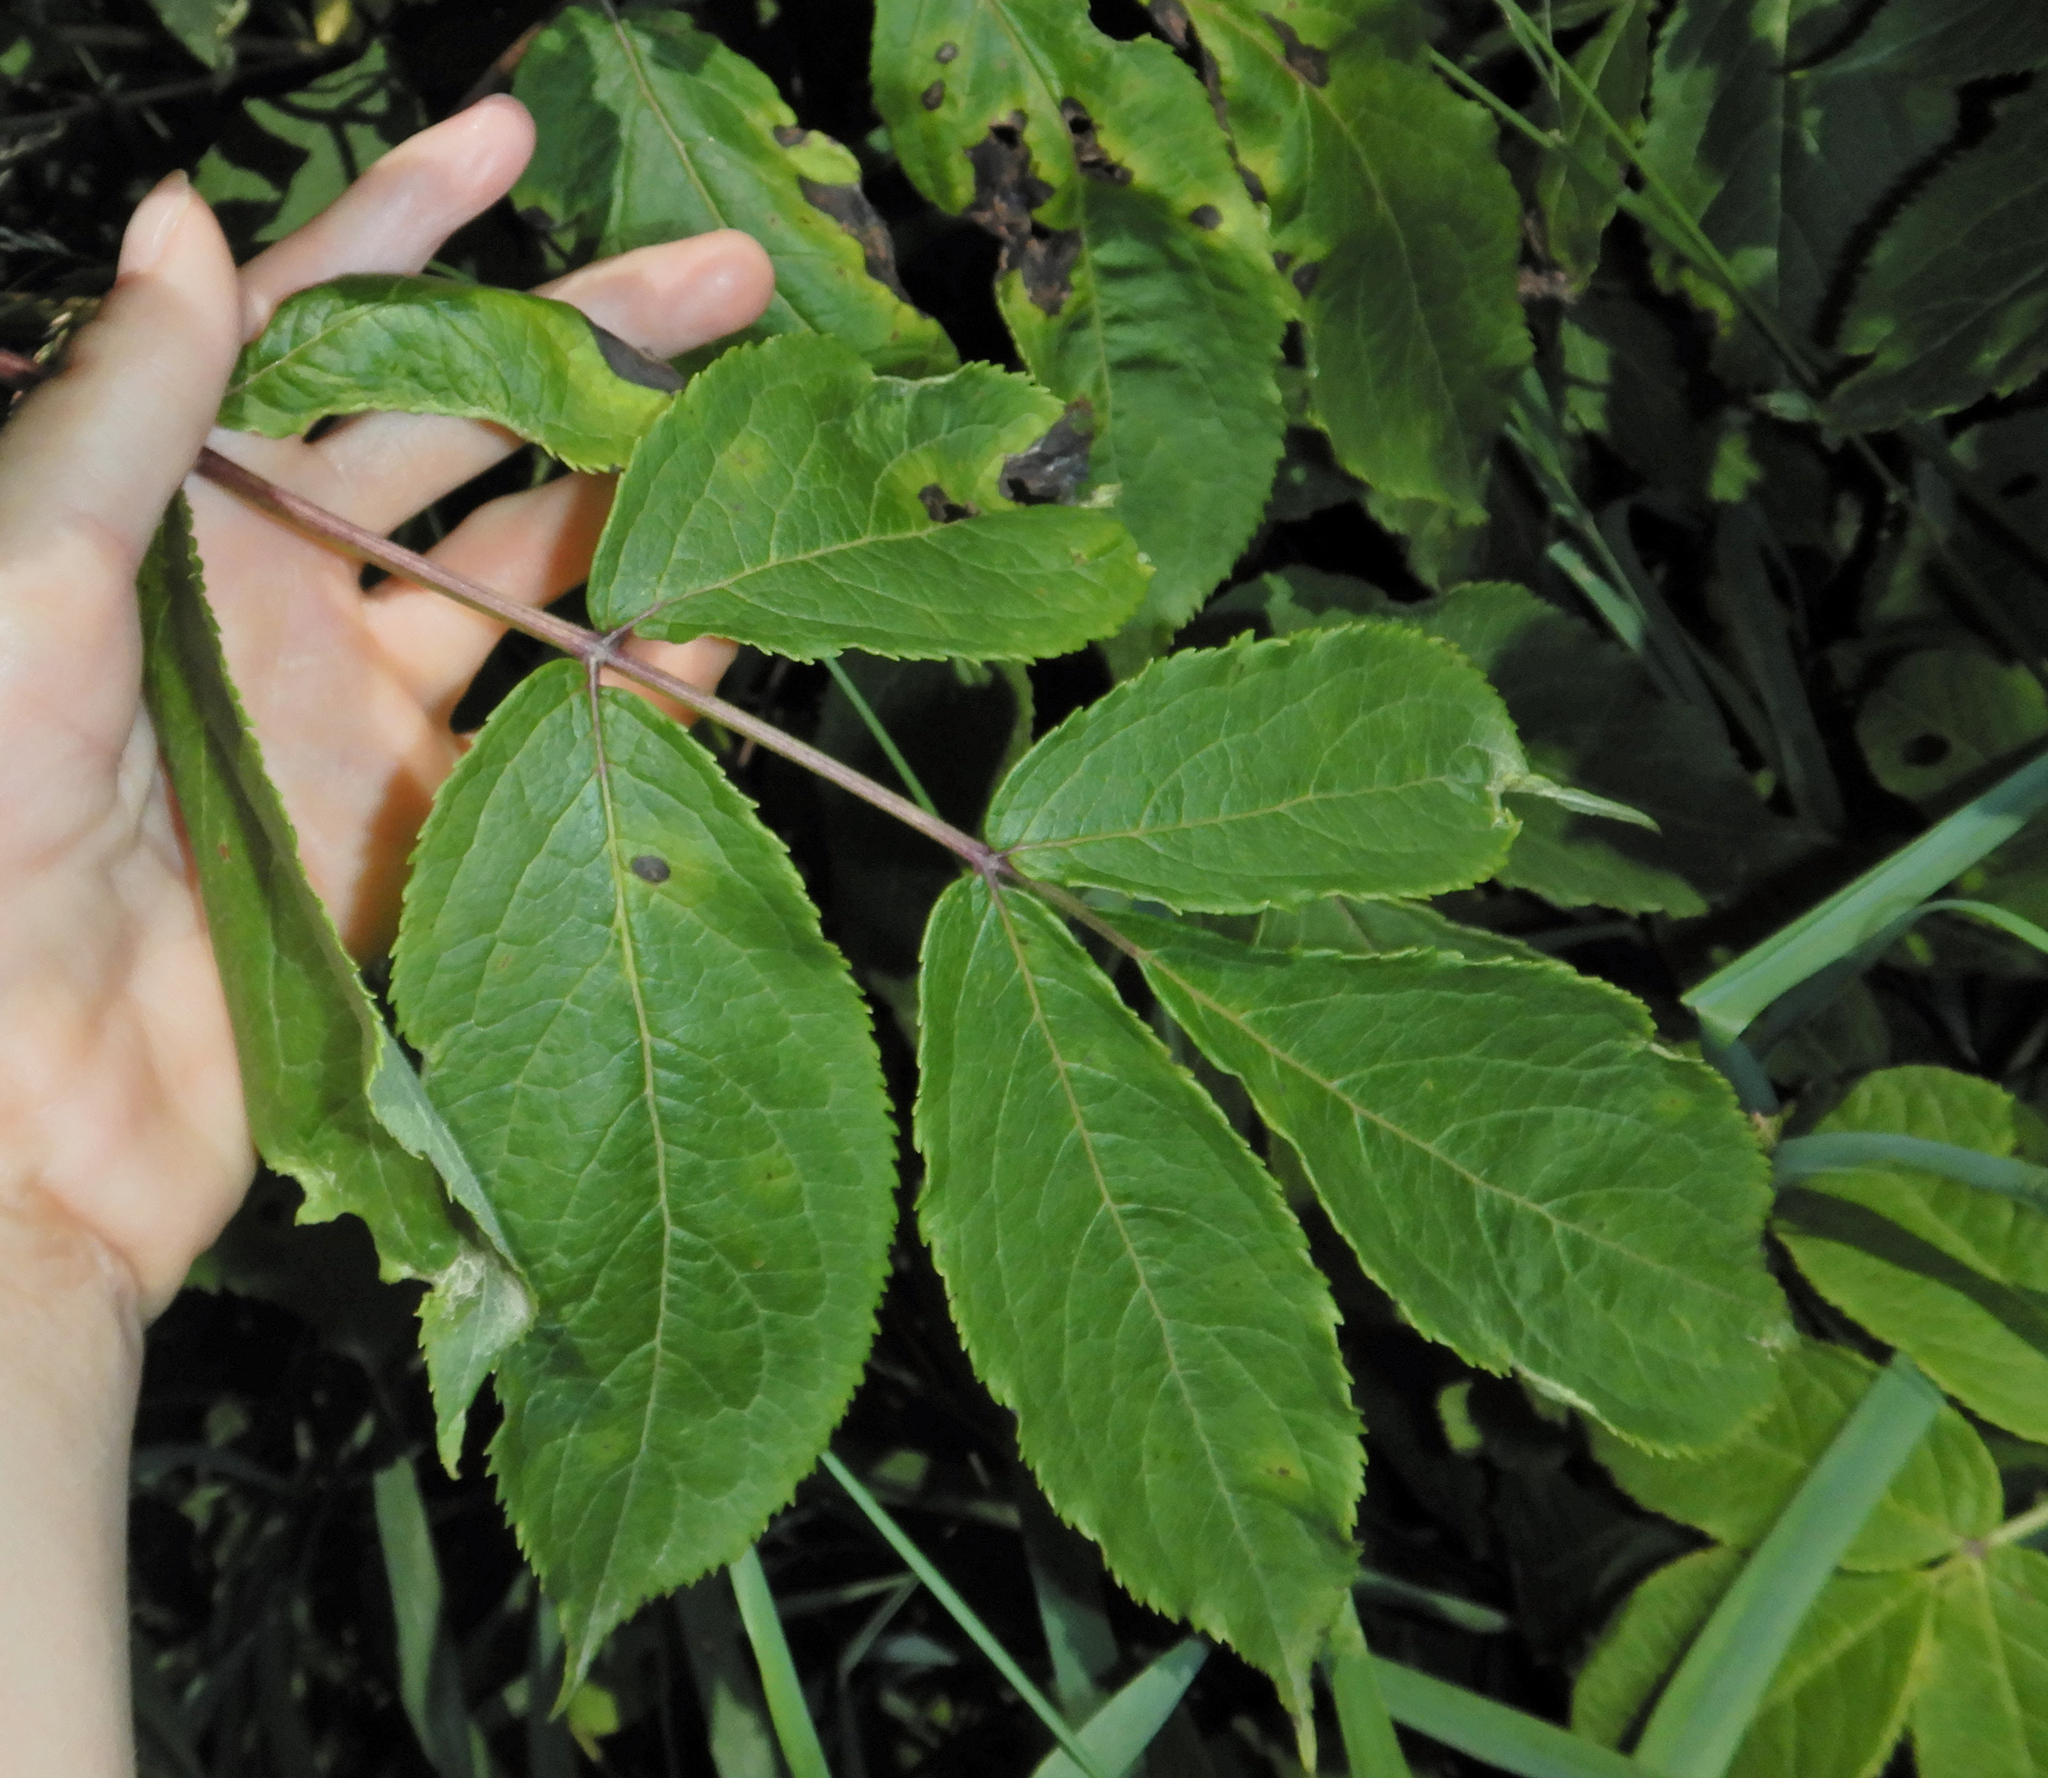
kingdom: Plantae
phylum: Tracheophyta
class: Magnoliopsida
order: Dipsacales
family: Viburnaceae
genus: Sambucus
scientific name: Sambucus racemosa
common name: Red-berried elder
